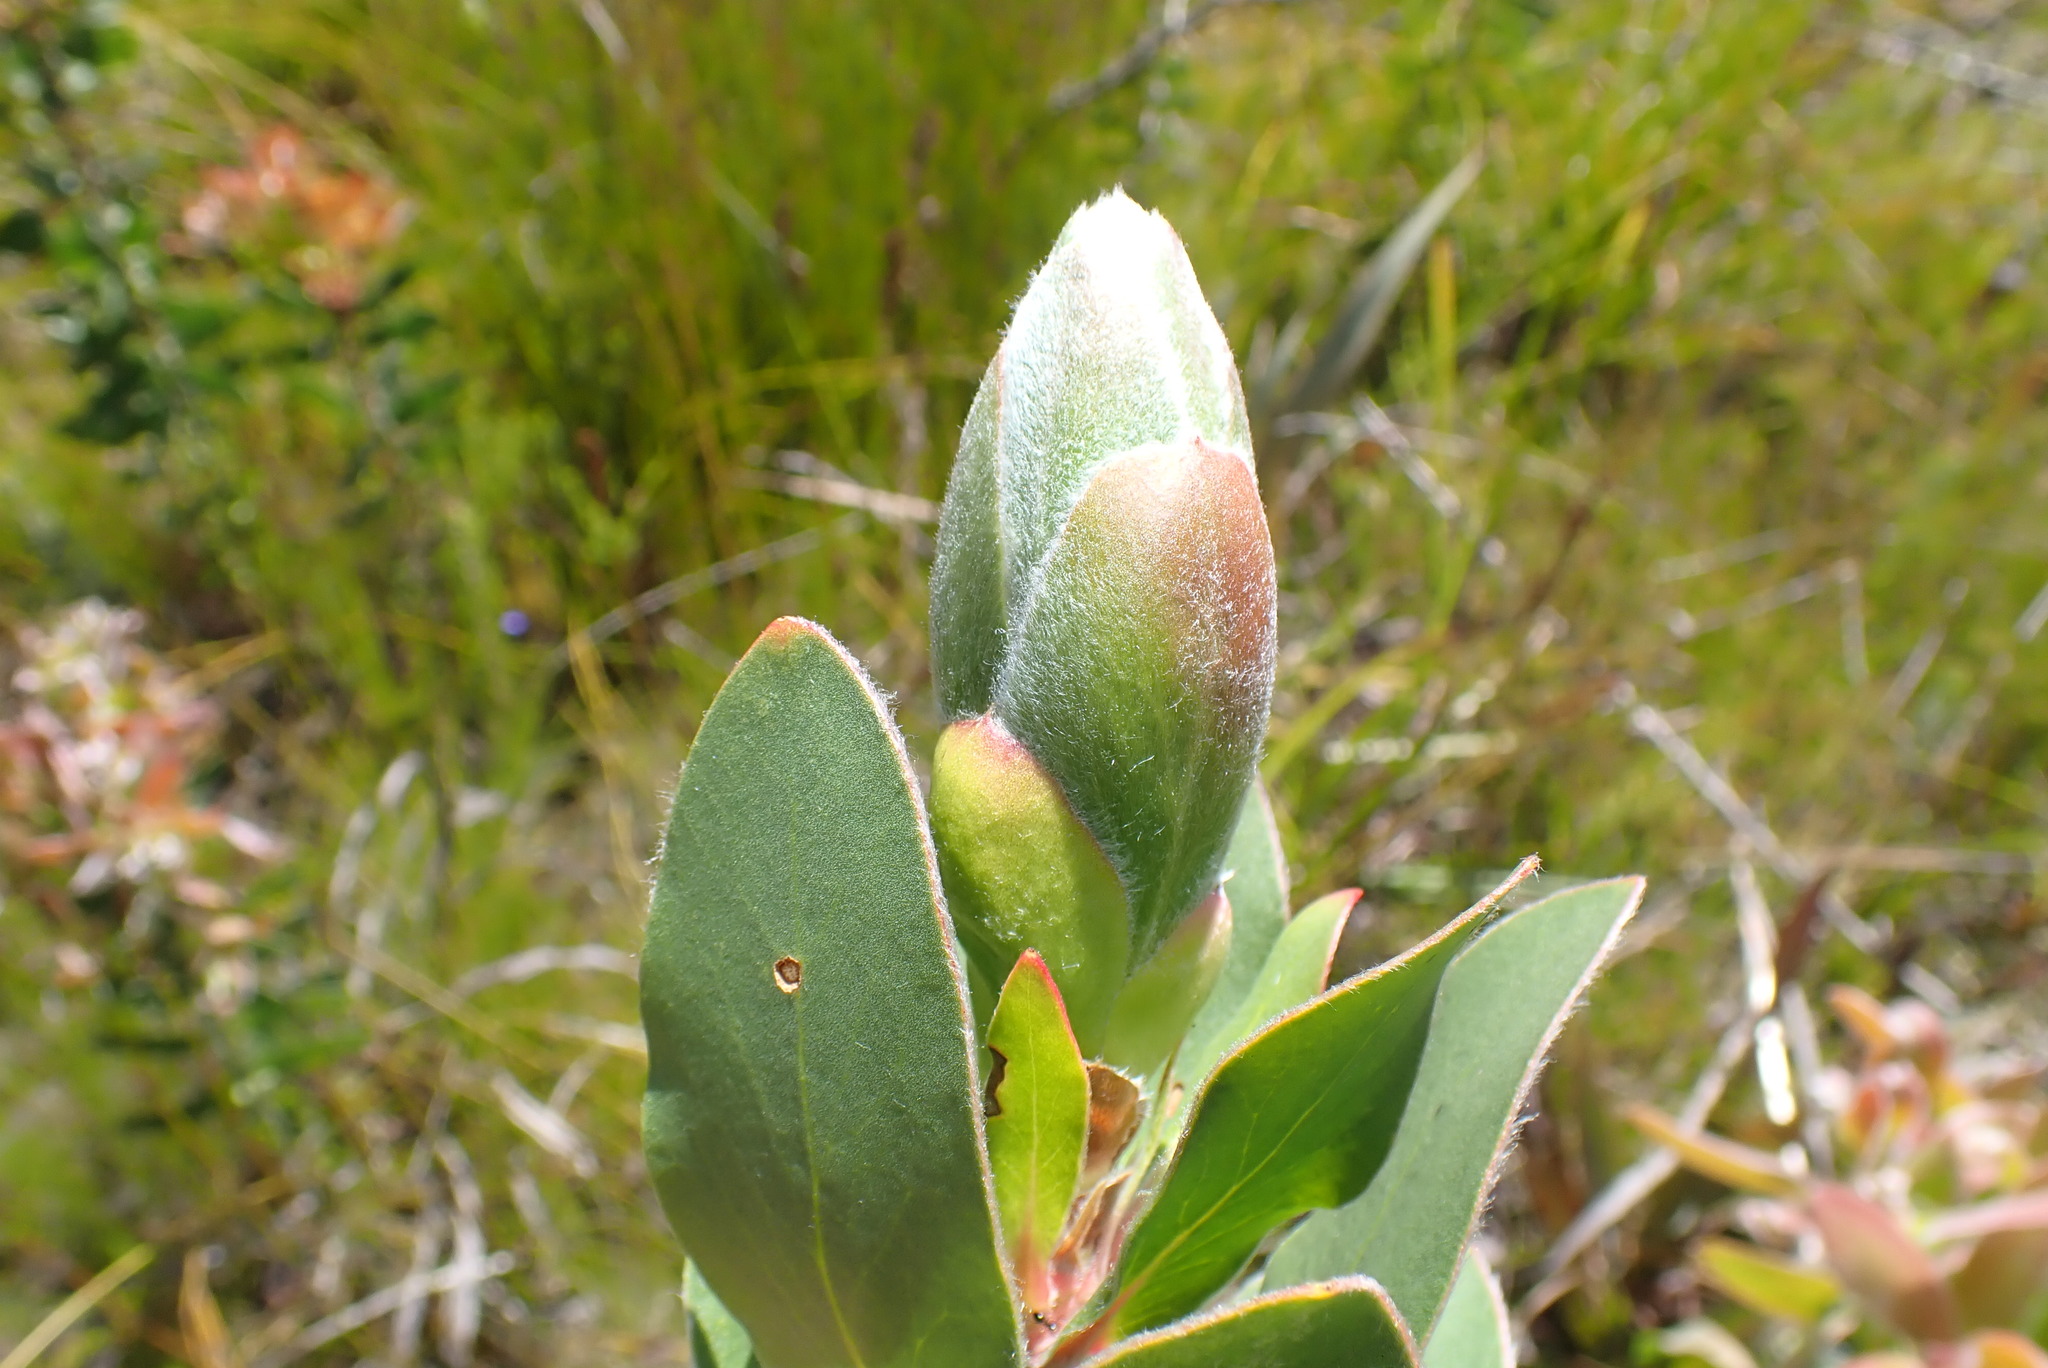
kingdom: Plantae
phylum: Tracheophyta
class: Magnoliopsida
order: Proteales
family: Proteaceae
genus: Protea
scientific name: Protea aurea
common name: Shuttlecock sugarbush
